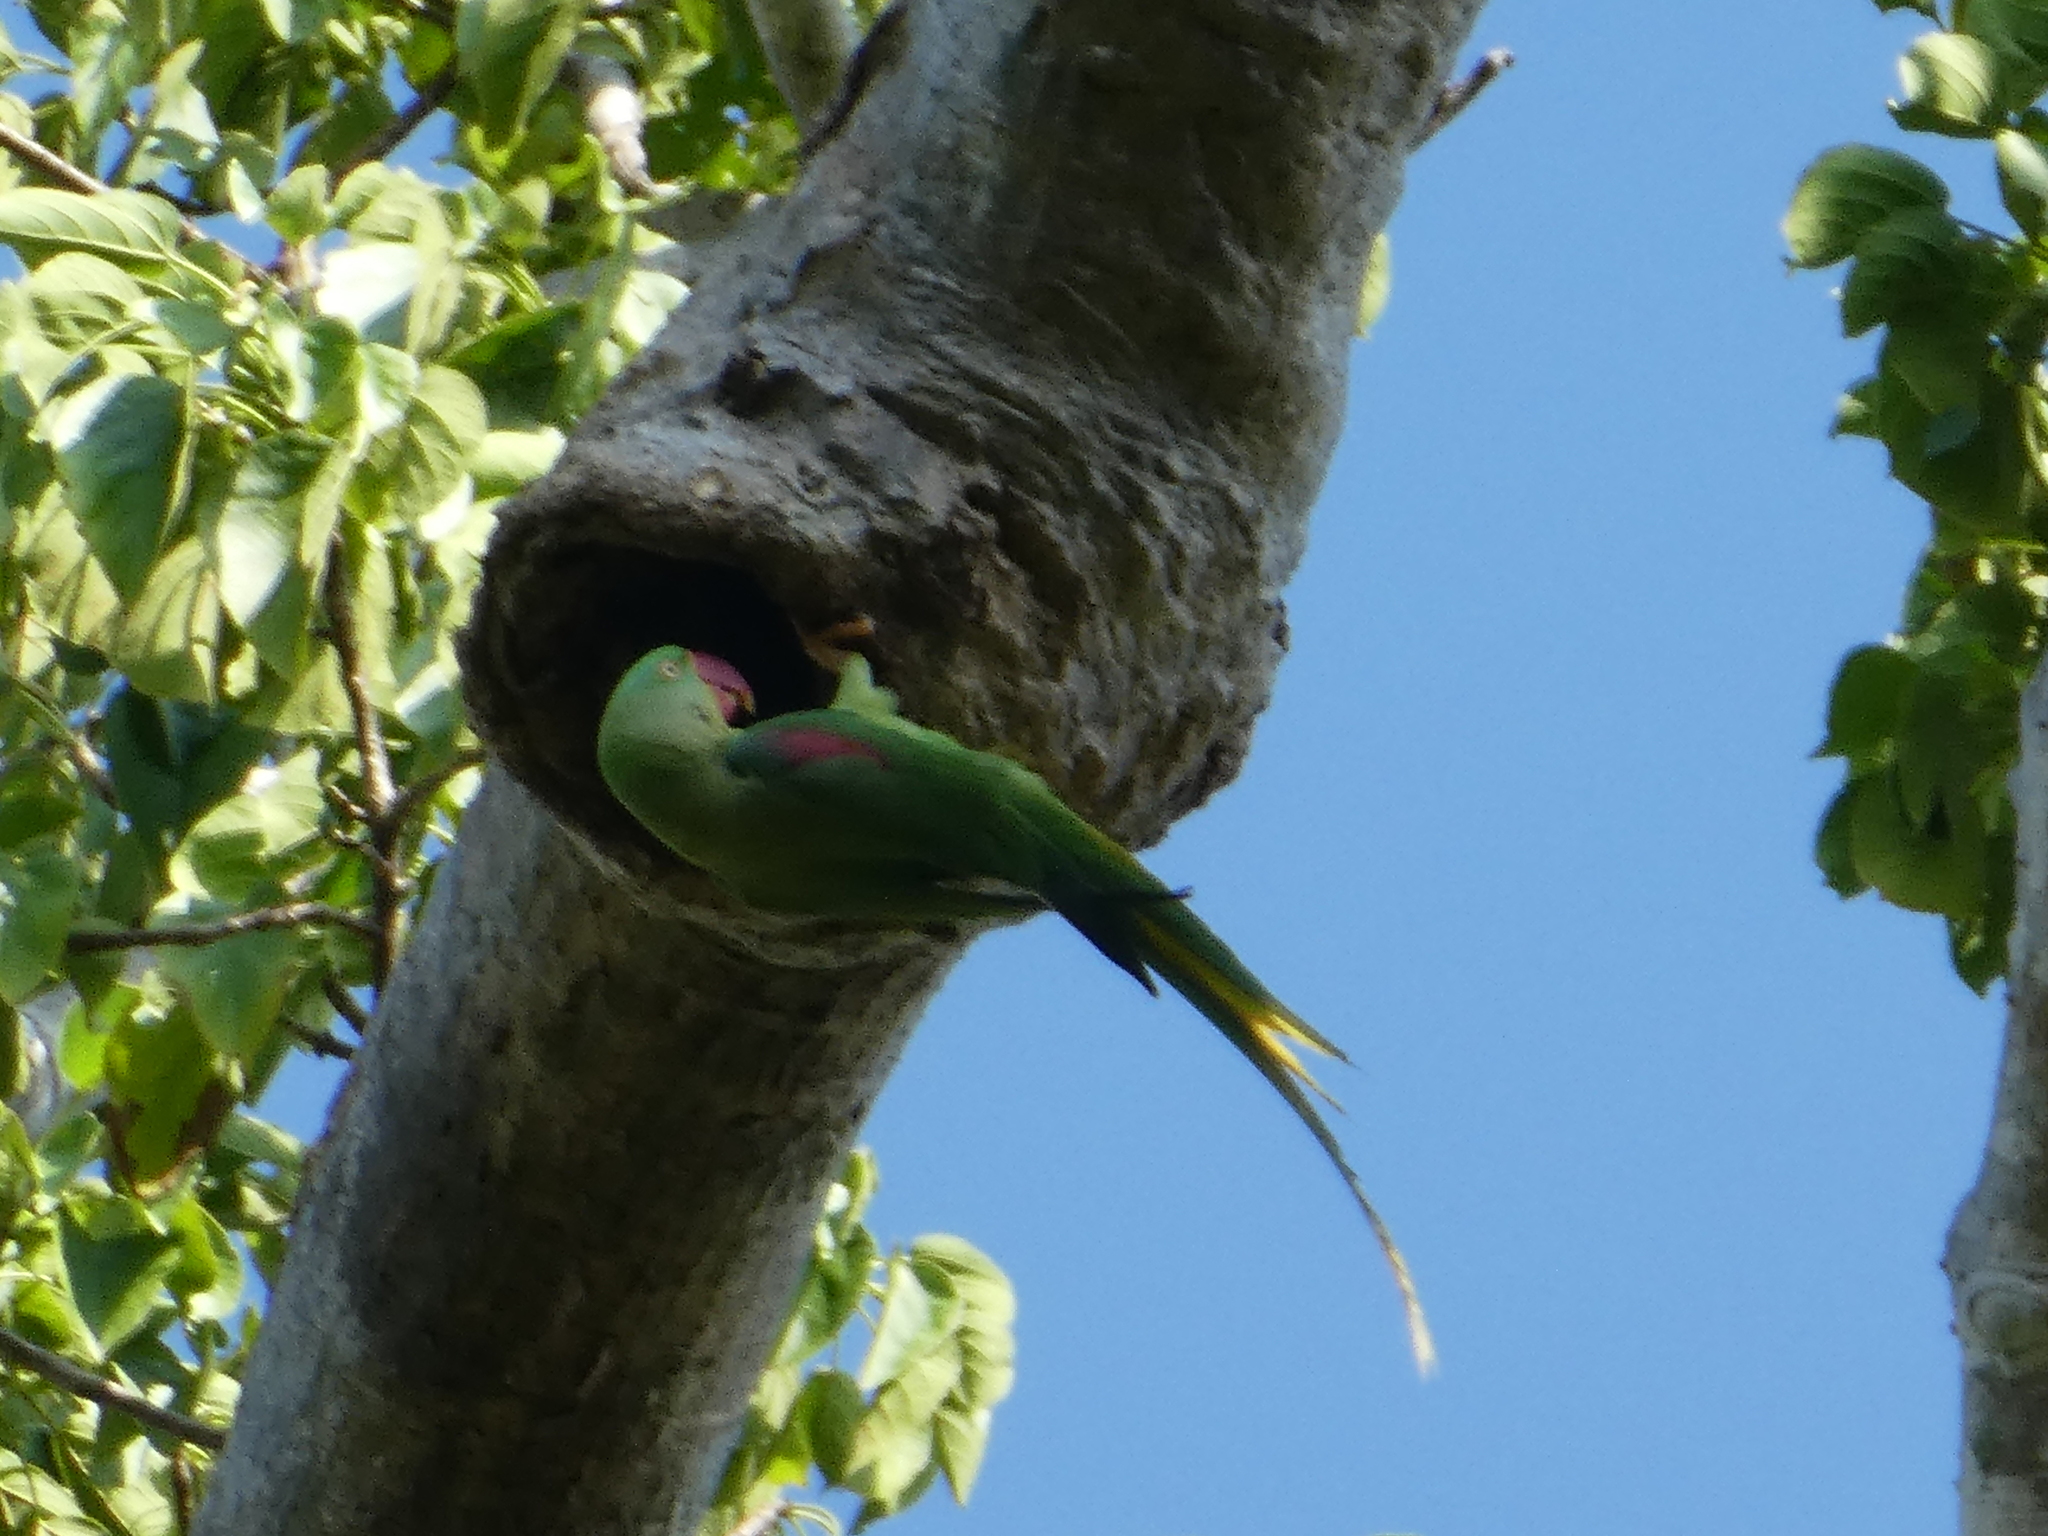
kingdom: Animalia
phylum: Chordata
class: Aves
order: Psittaciformes
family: Psittacidae
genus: Psittacula
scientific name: Psittacula eupatria
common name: Alexandrine parakeet
